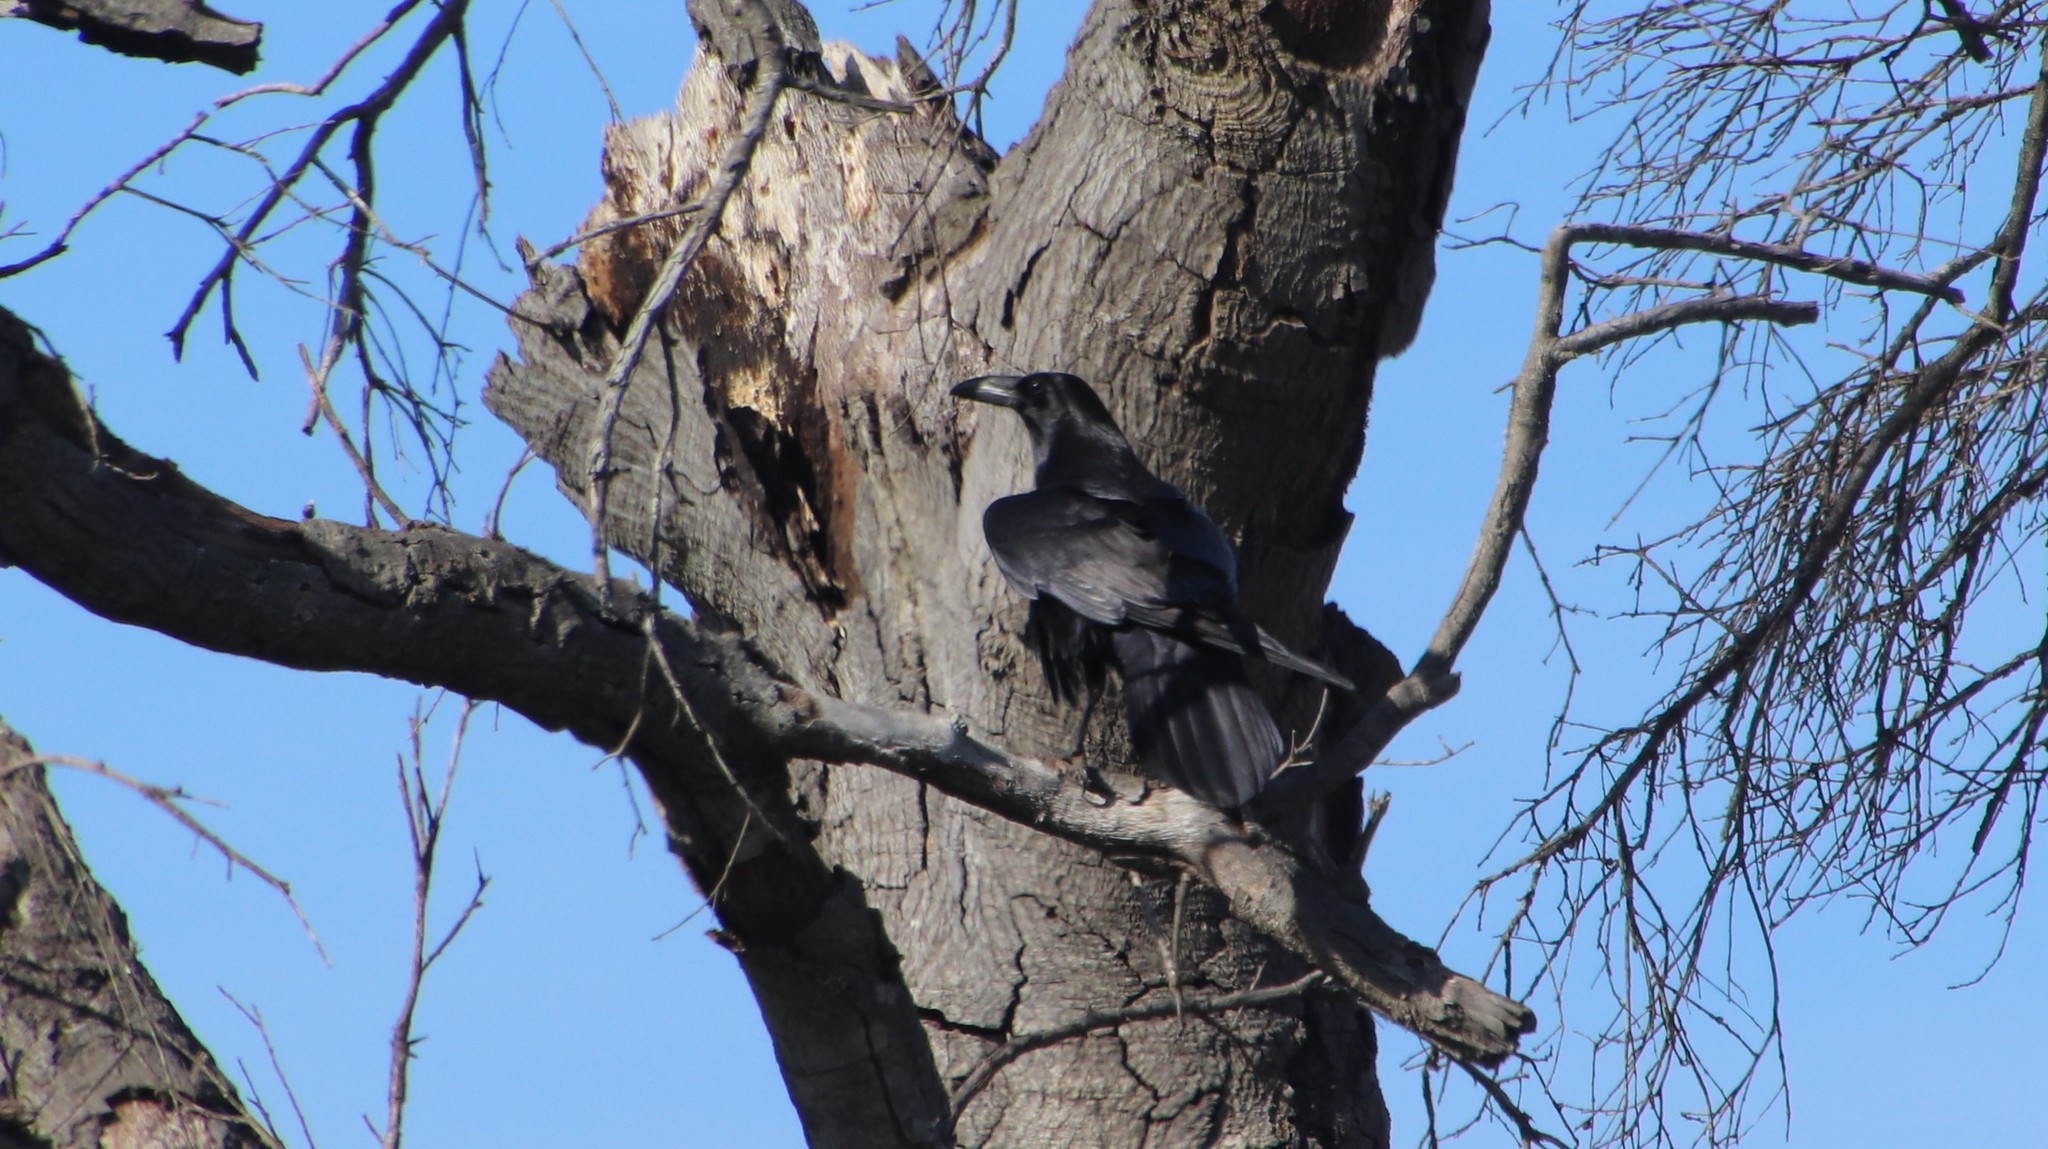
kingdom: Animalia
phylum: Chordata
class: Aves
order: Passeriformes
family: Corvidae
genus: Corvus
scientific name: Corvus corax
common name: Common raven
